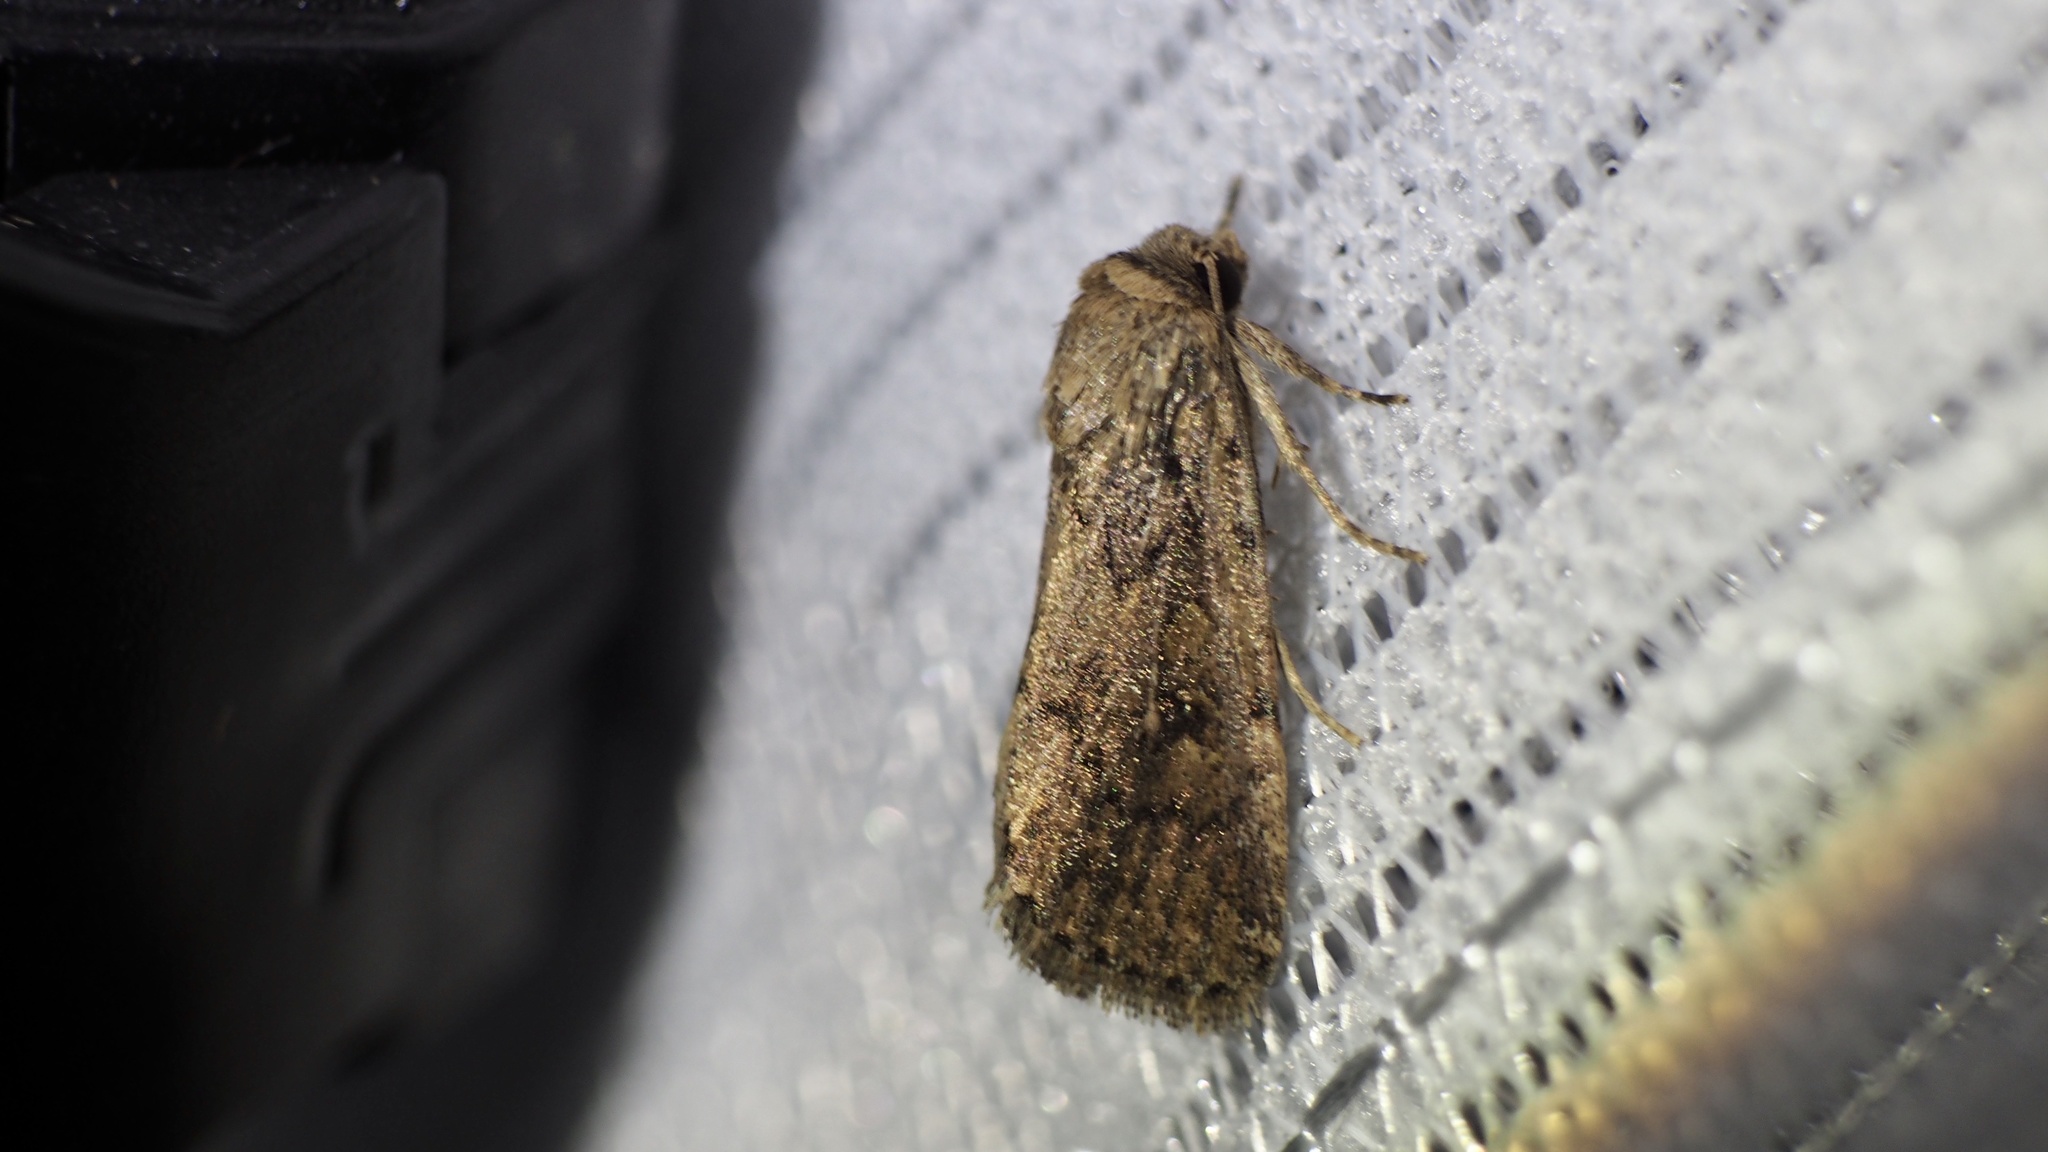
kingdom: Animalia
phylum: Arthropoda
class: Insecta
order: Lepidoptera
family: Noctuidae
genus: Spodoptera
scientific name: Spodoptera depravata
